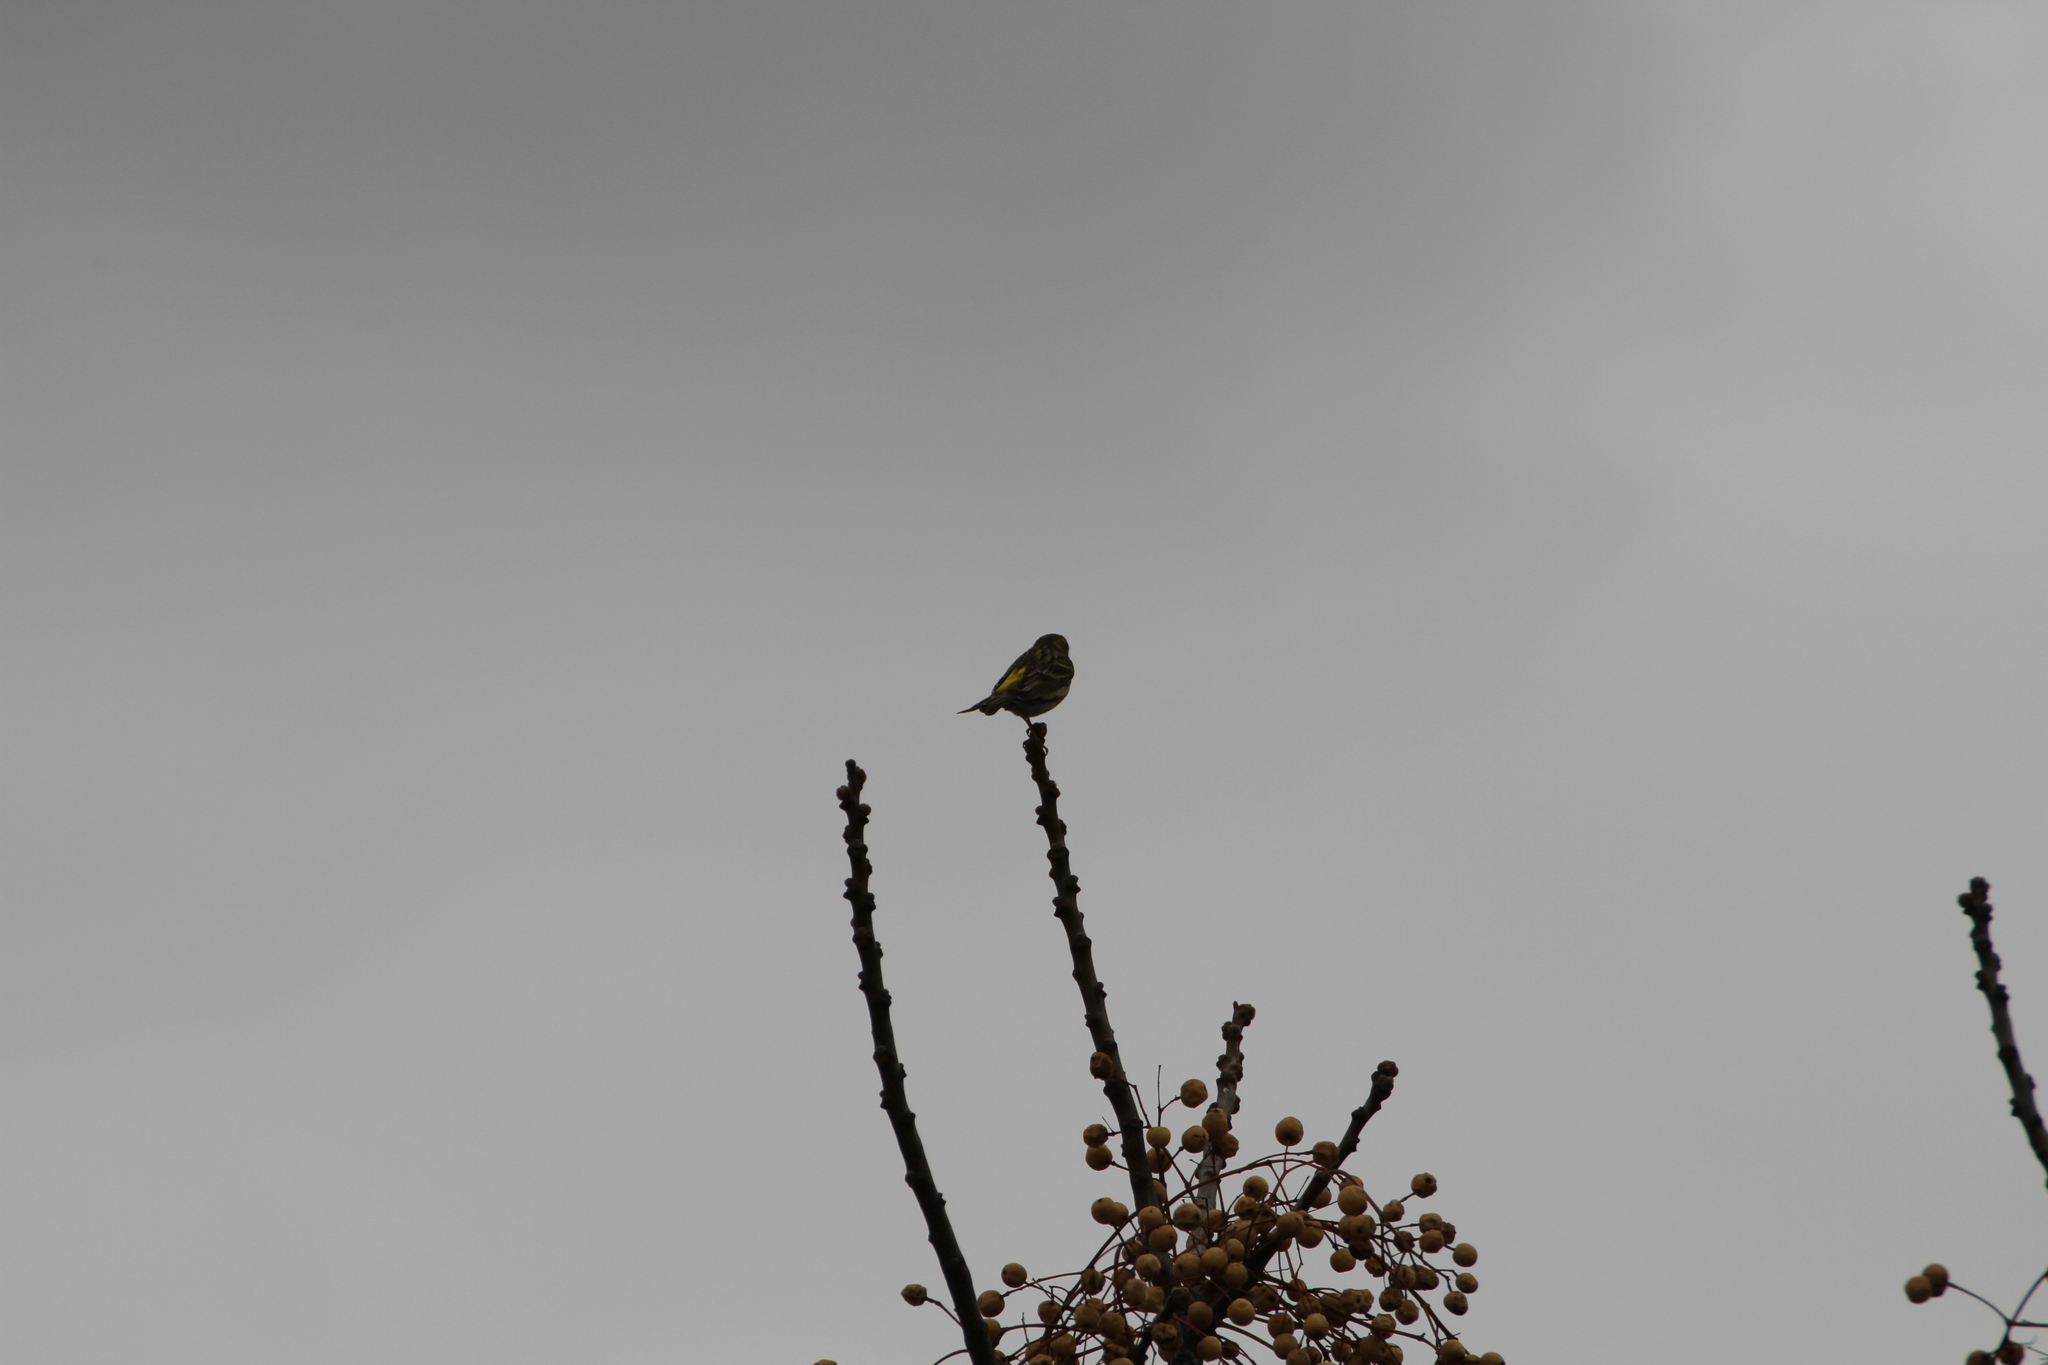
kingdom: Animalia
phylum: Chordata
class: Aves
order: Passeriformes
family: Fringillidae
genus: Serinus
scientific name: Serinus serinus
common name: European serin
